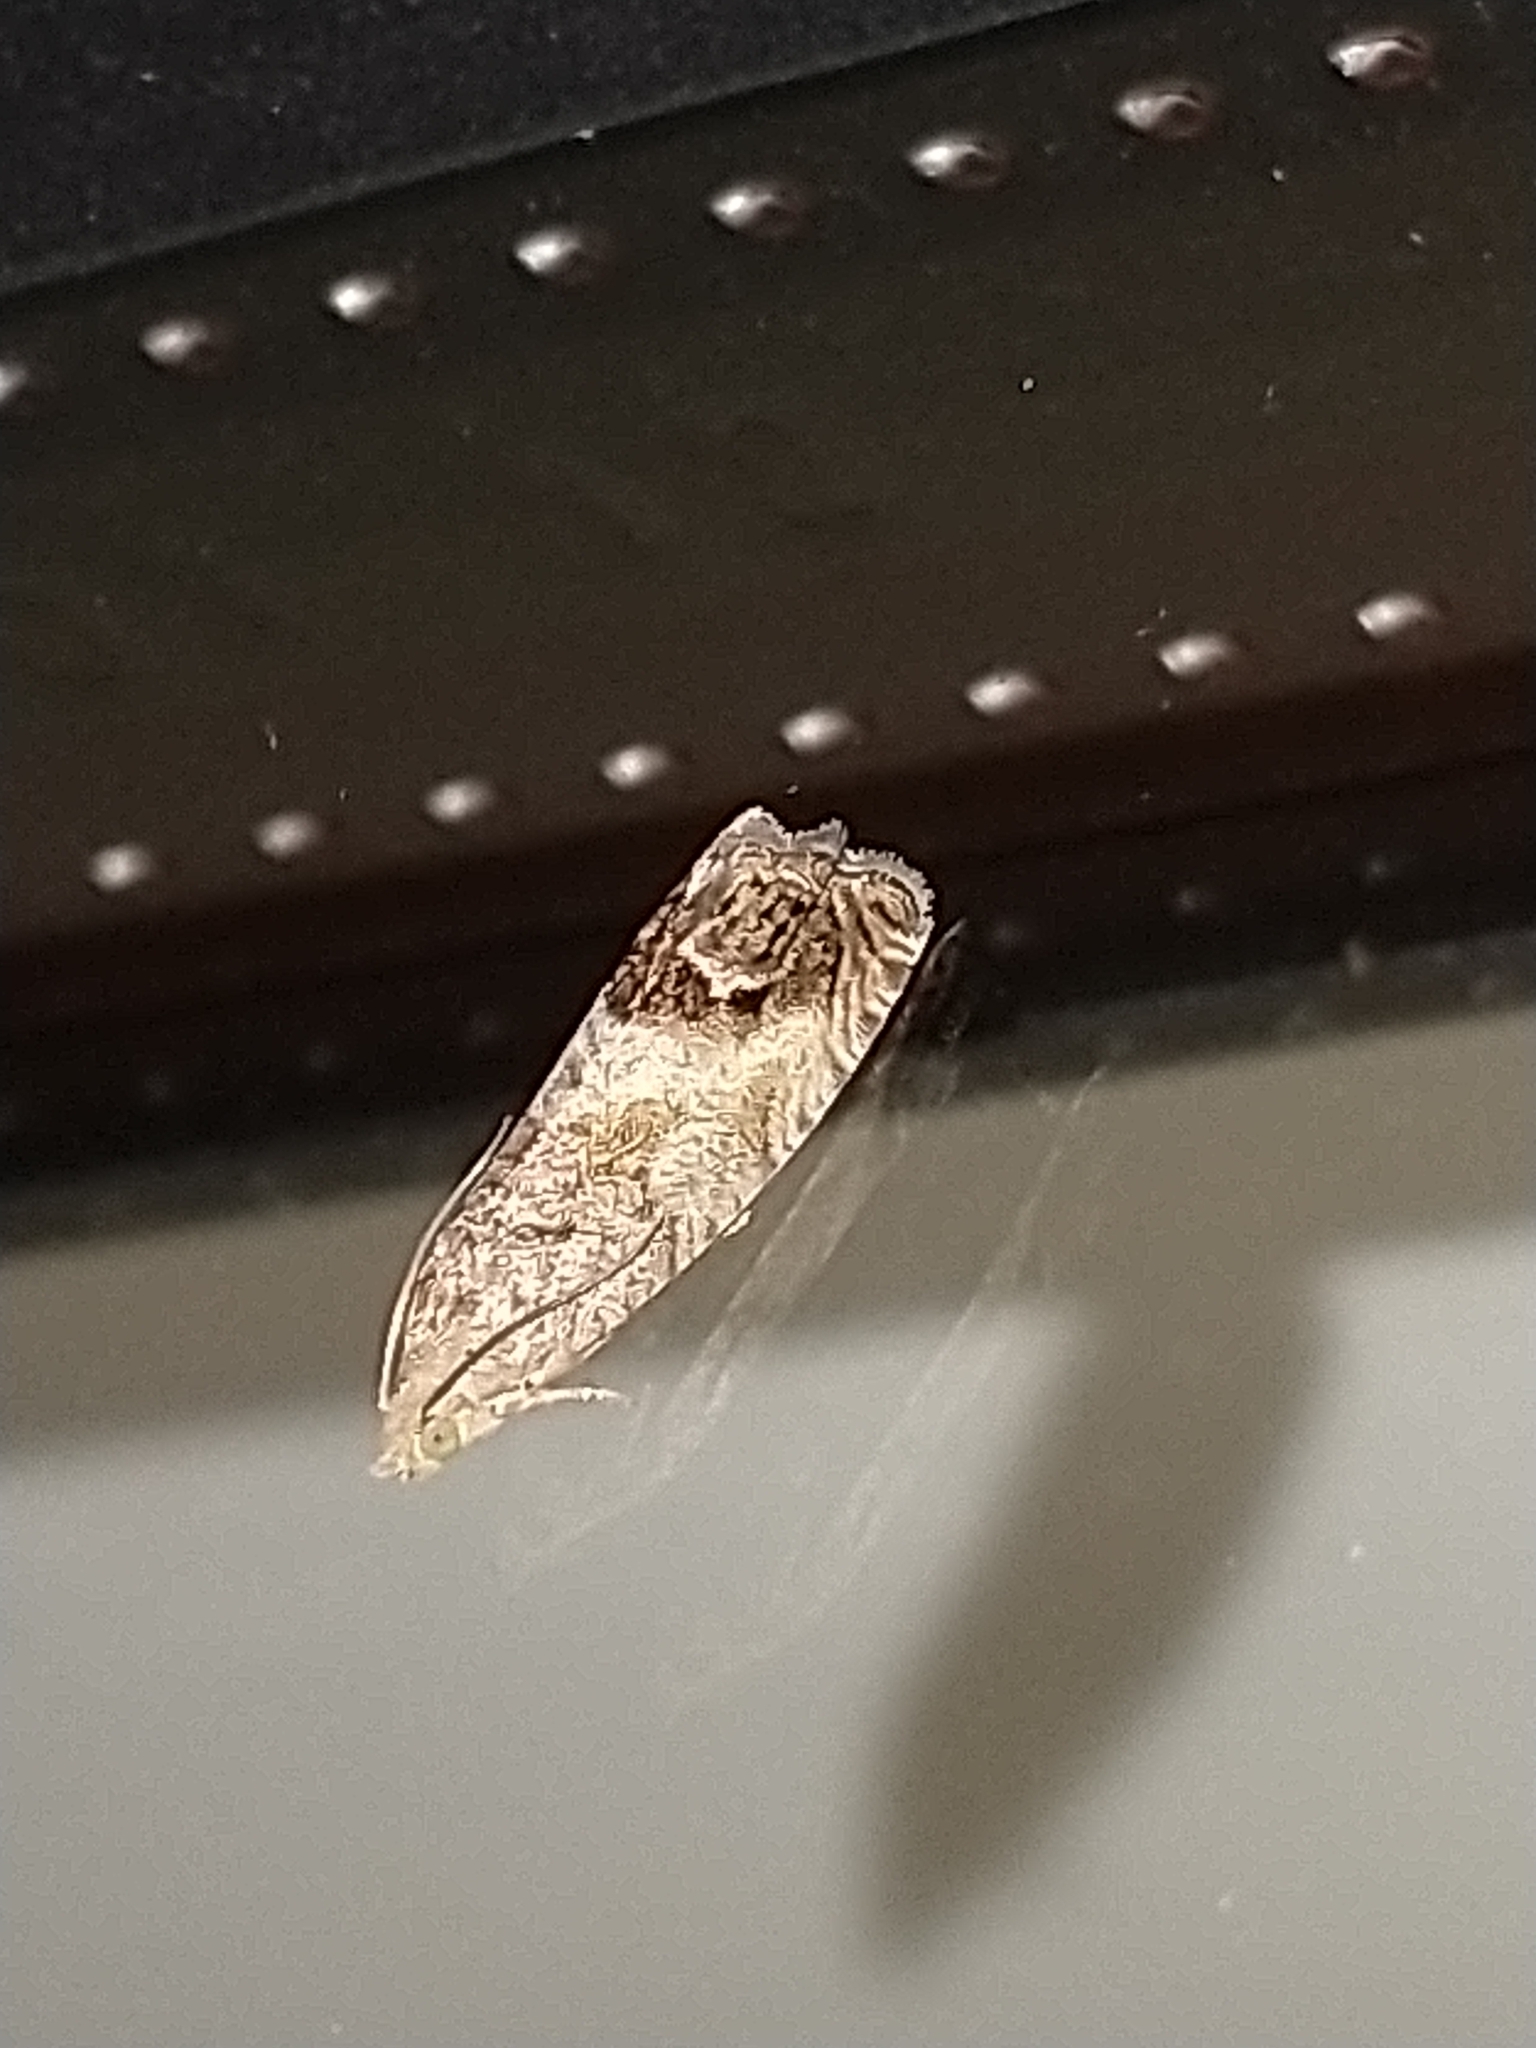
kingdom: Animalia
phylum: Arthropoda
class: Insecta
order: Lepidoptera
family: Tortricidae
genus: Cydia
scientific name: Cydia splendana
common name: De: kastanienwickler, eichenwickler es: oruga de la castaña fr: carpocapse des châtaignes it: cidia o tortrice tardiva delle castagne pt: bichado das castanhas gb: acorn moth, chestnut fruit tortrix
